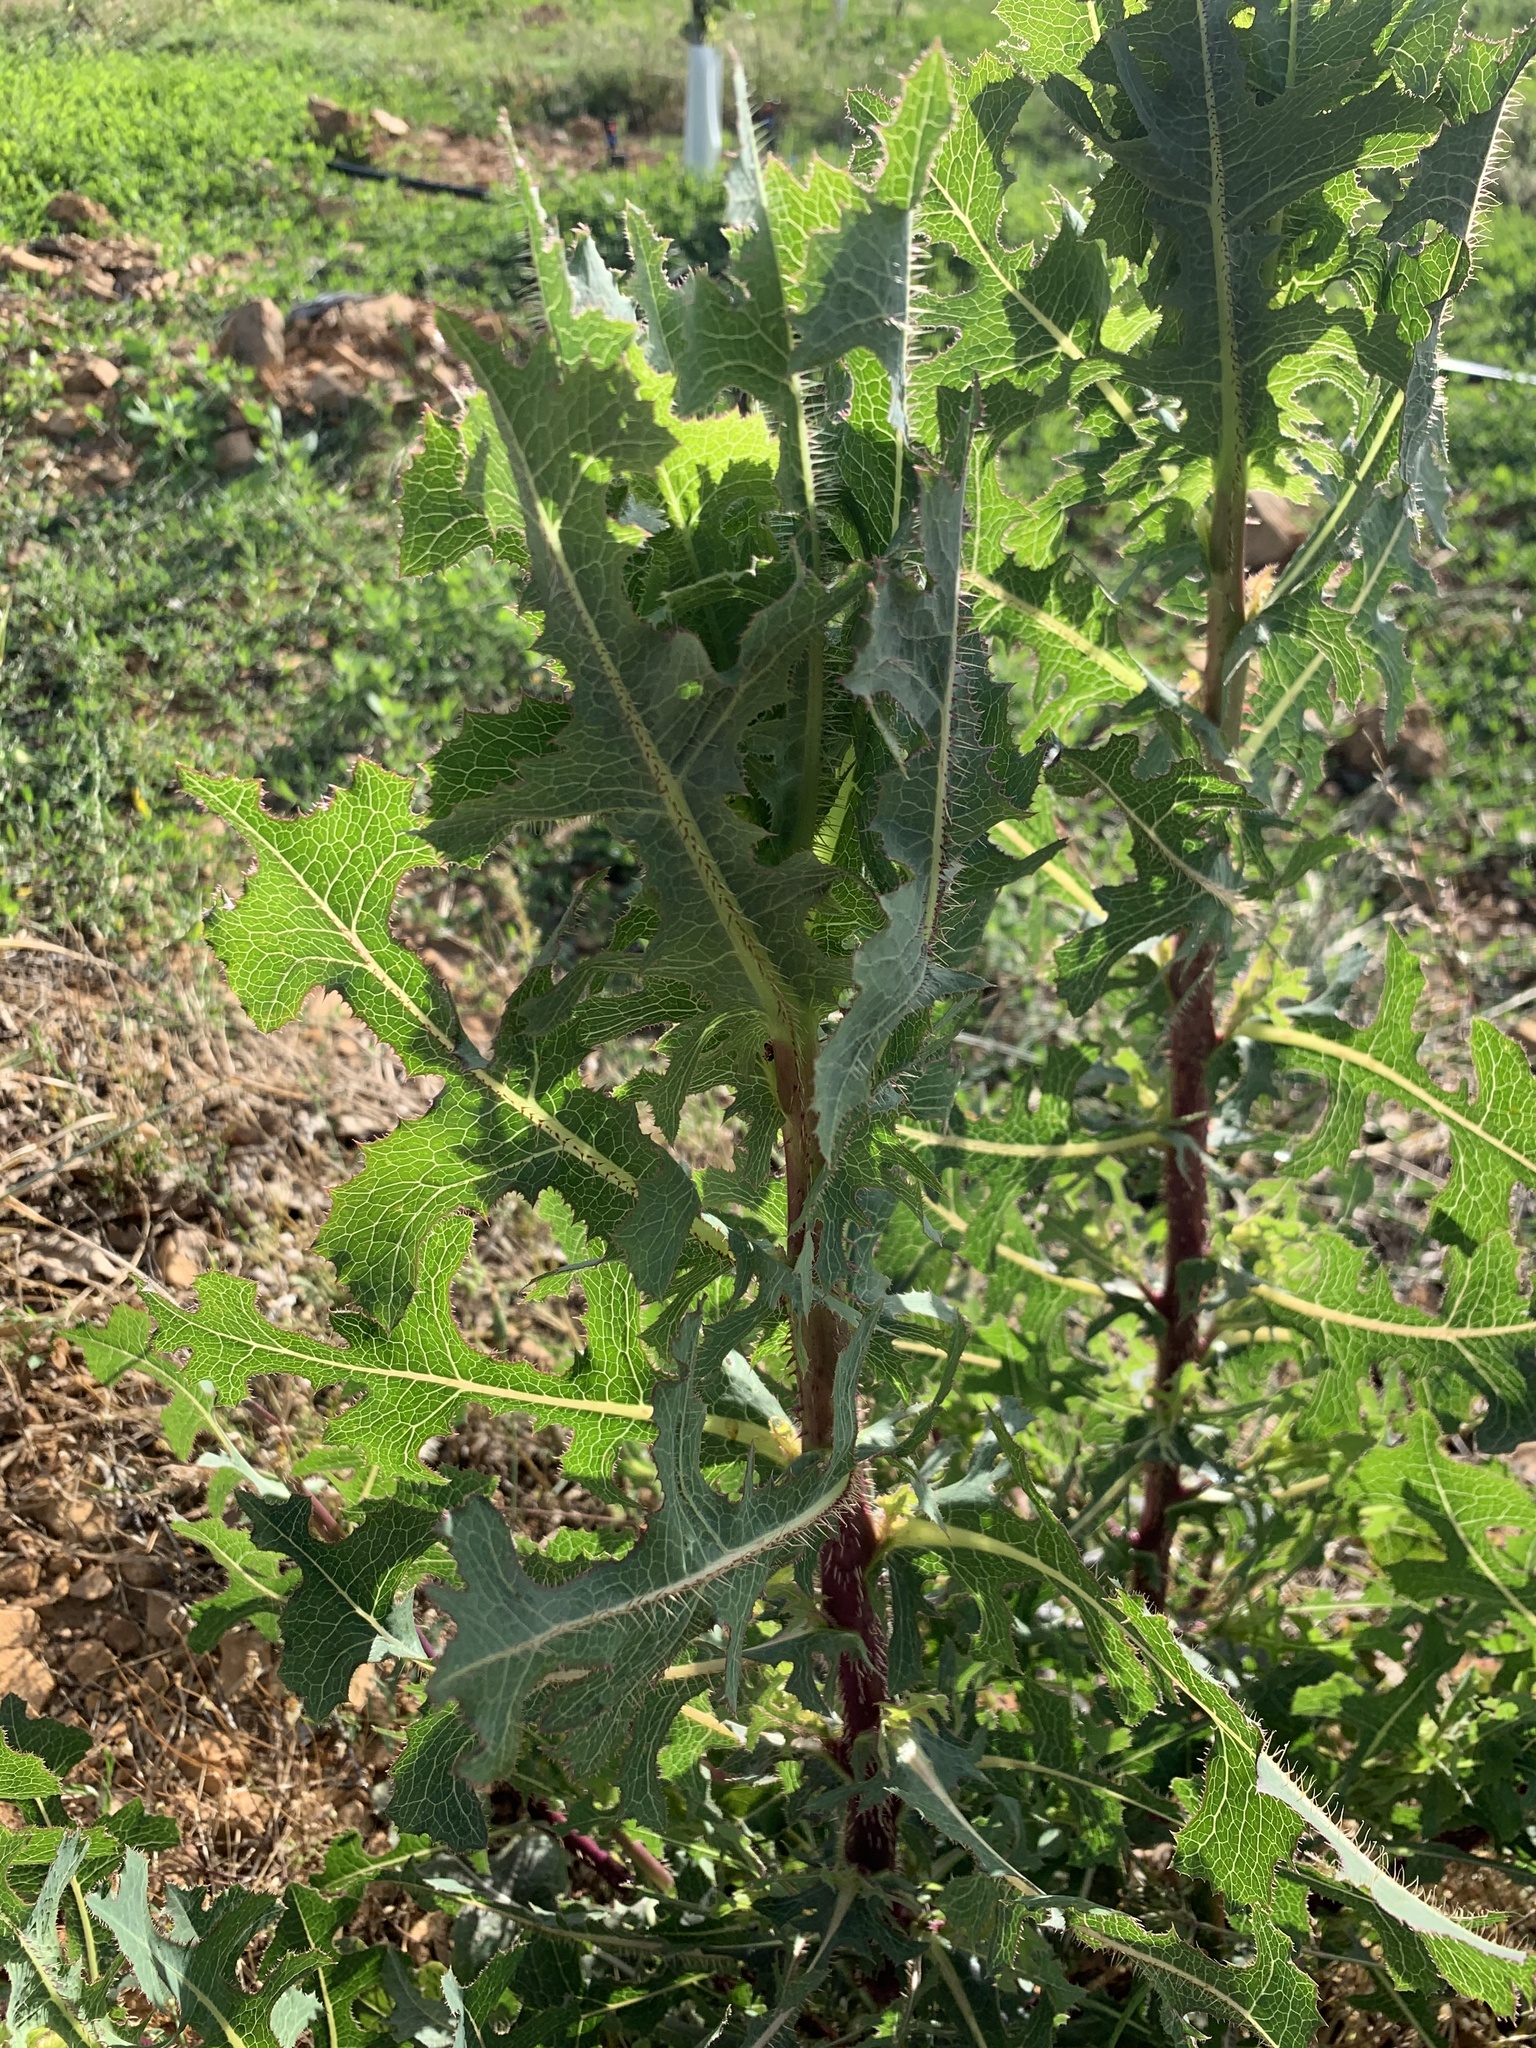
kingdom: Plantae
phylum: Tracheophyta
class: Magnoliopsida
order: Asterales
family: Asteraceae
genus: Lactuca
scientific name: Lactuca serriola
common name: Prickly lettuce
